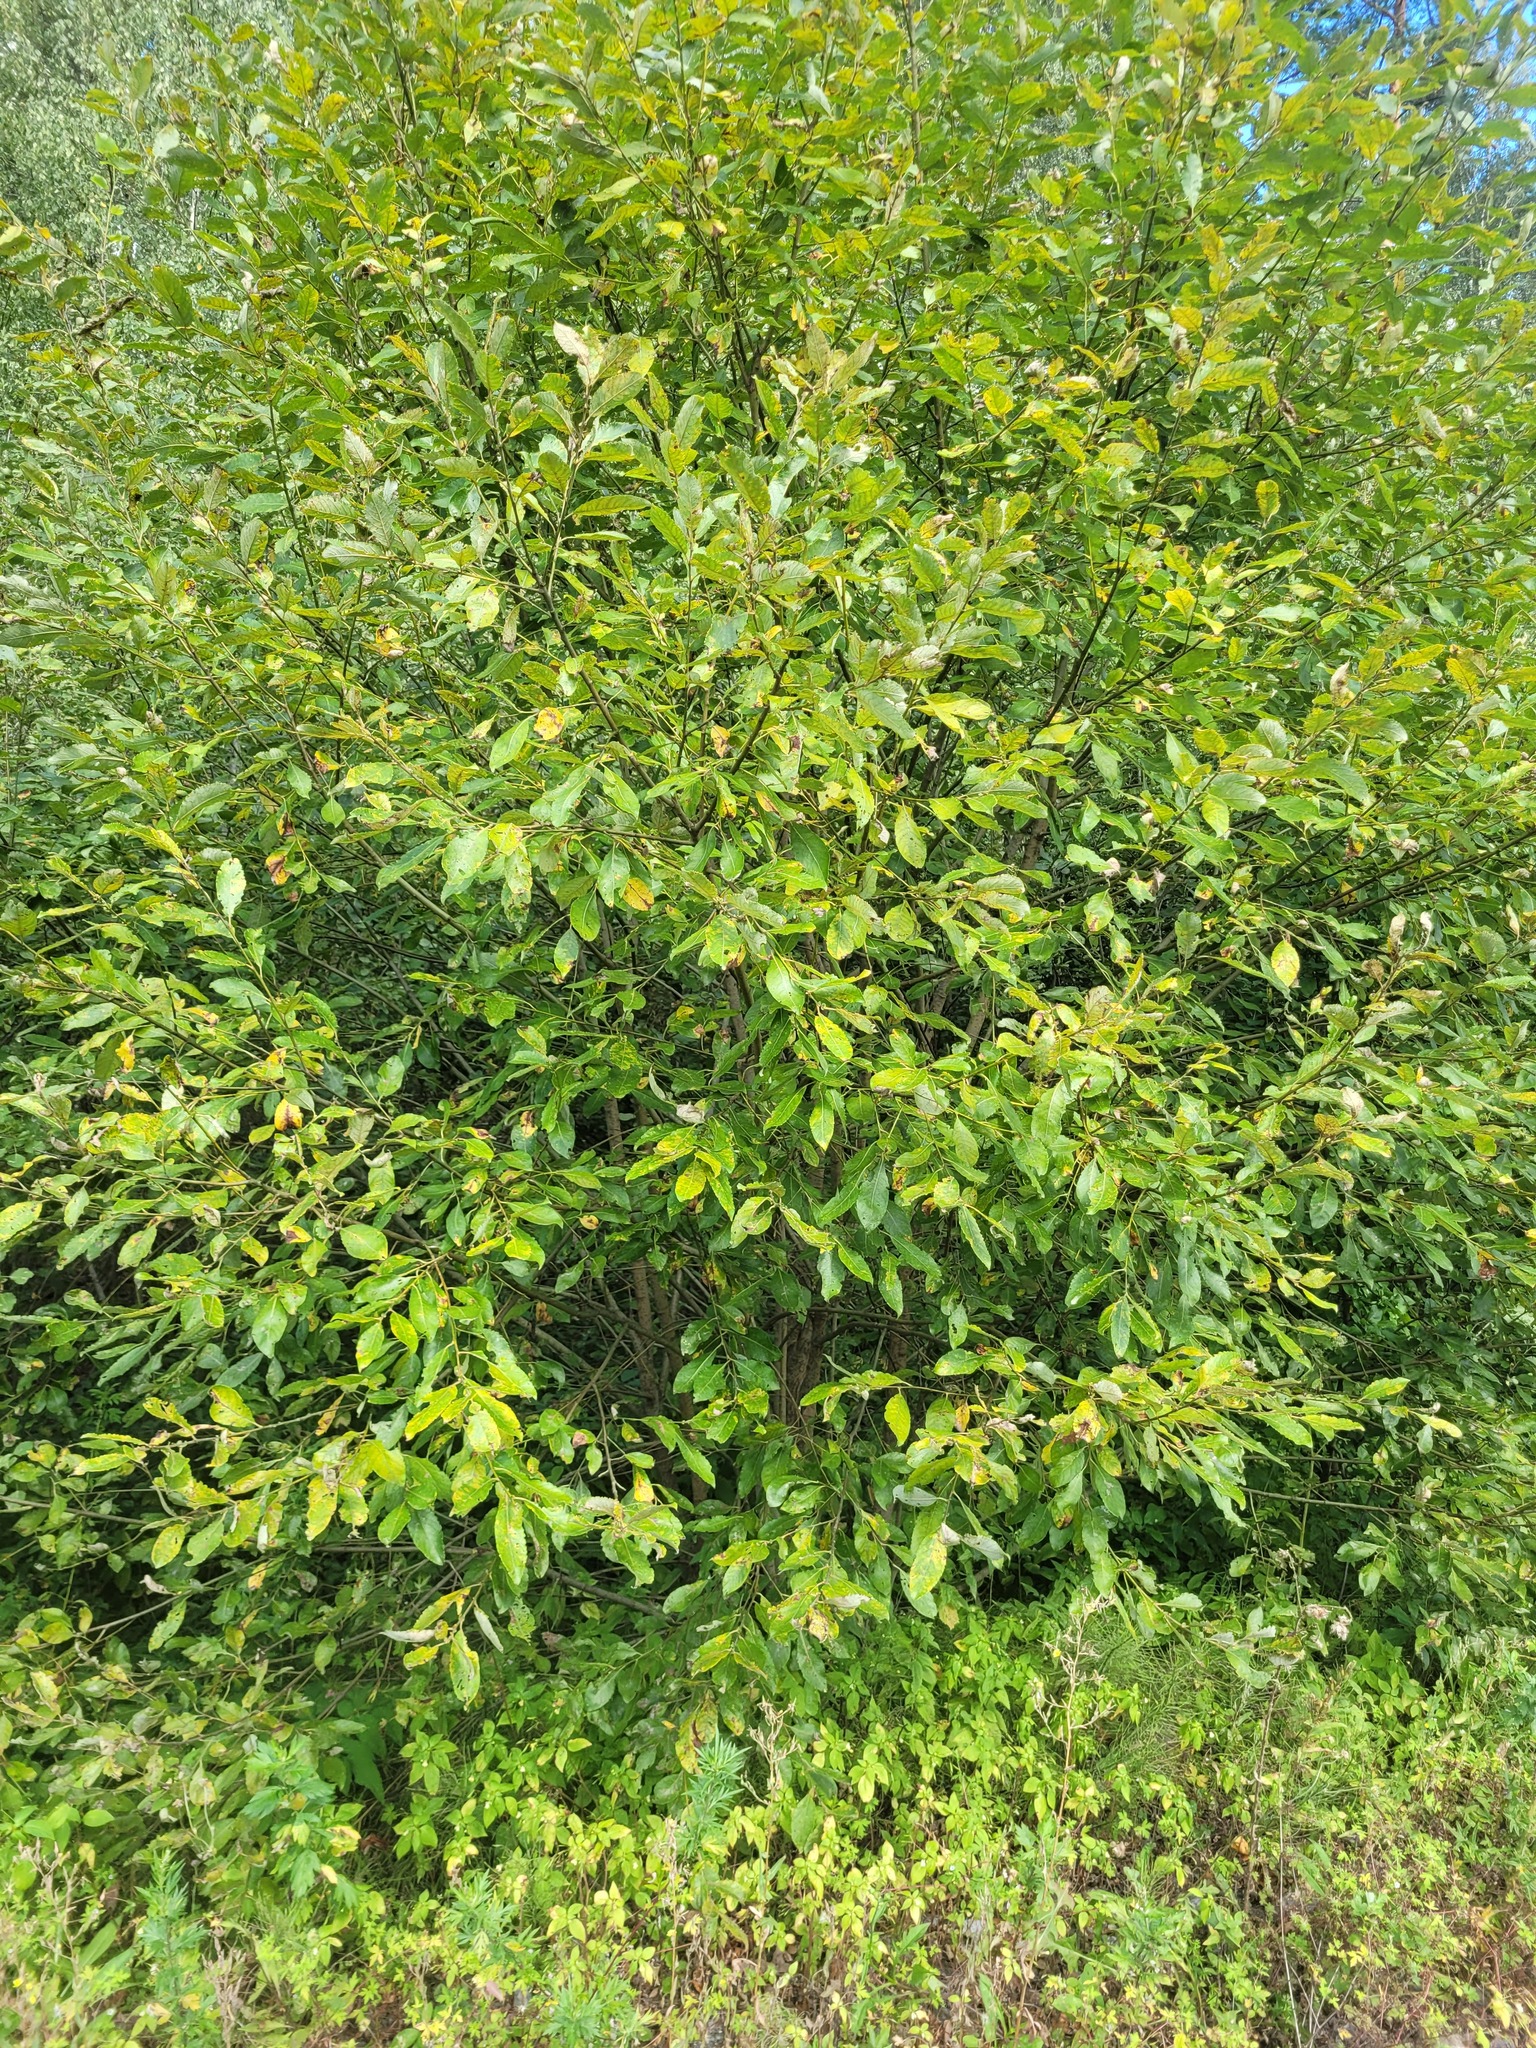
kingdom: Plantae
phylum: Tracheophyta
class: Magnoliopsida
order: Malpighiales
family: Salicaceae
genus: Salix
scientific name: Salix caprea
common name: Goat willow
